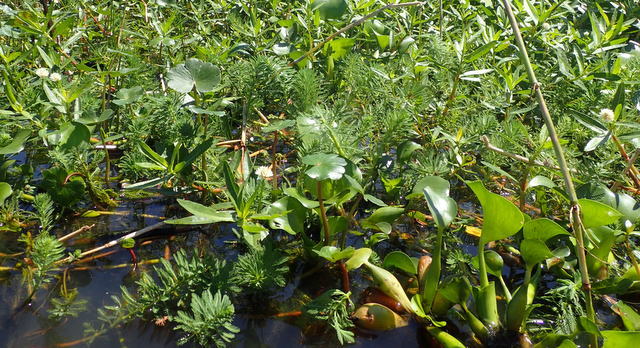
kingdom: Plantae
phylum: Tracheophyta
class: Magnoliopsida
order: Saxifragales
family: Haloragaceae
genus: Myriophyllum
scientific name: Myriophyllum aquaticum
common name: Parrot's feather
